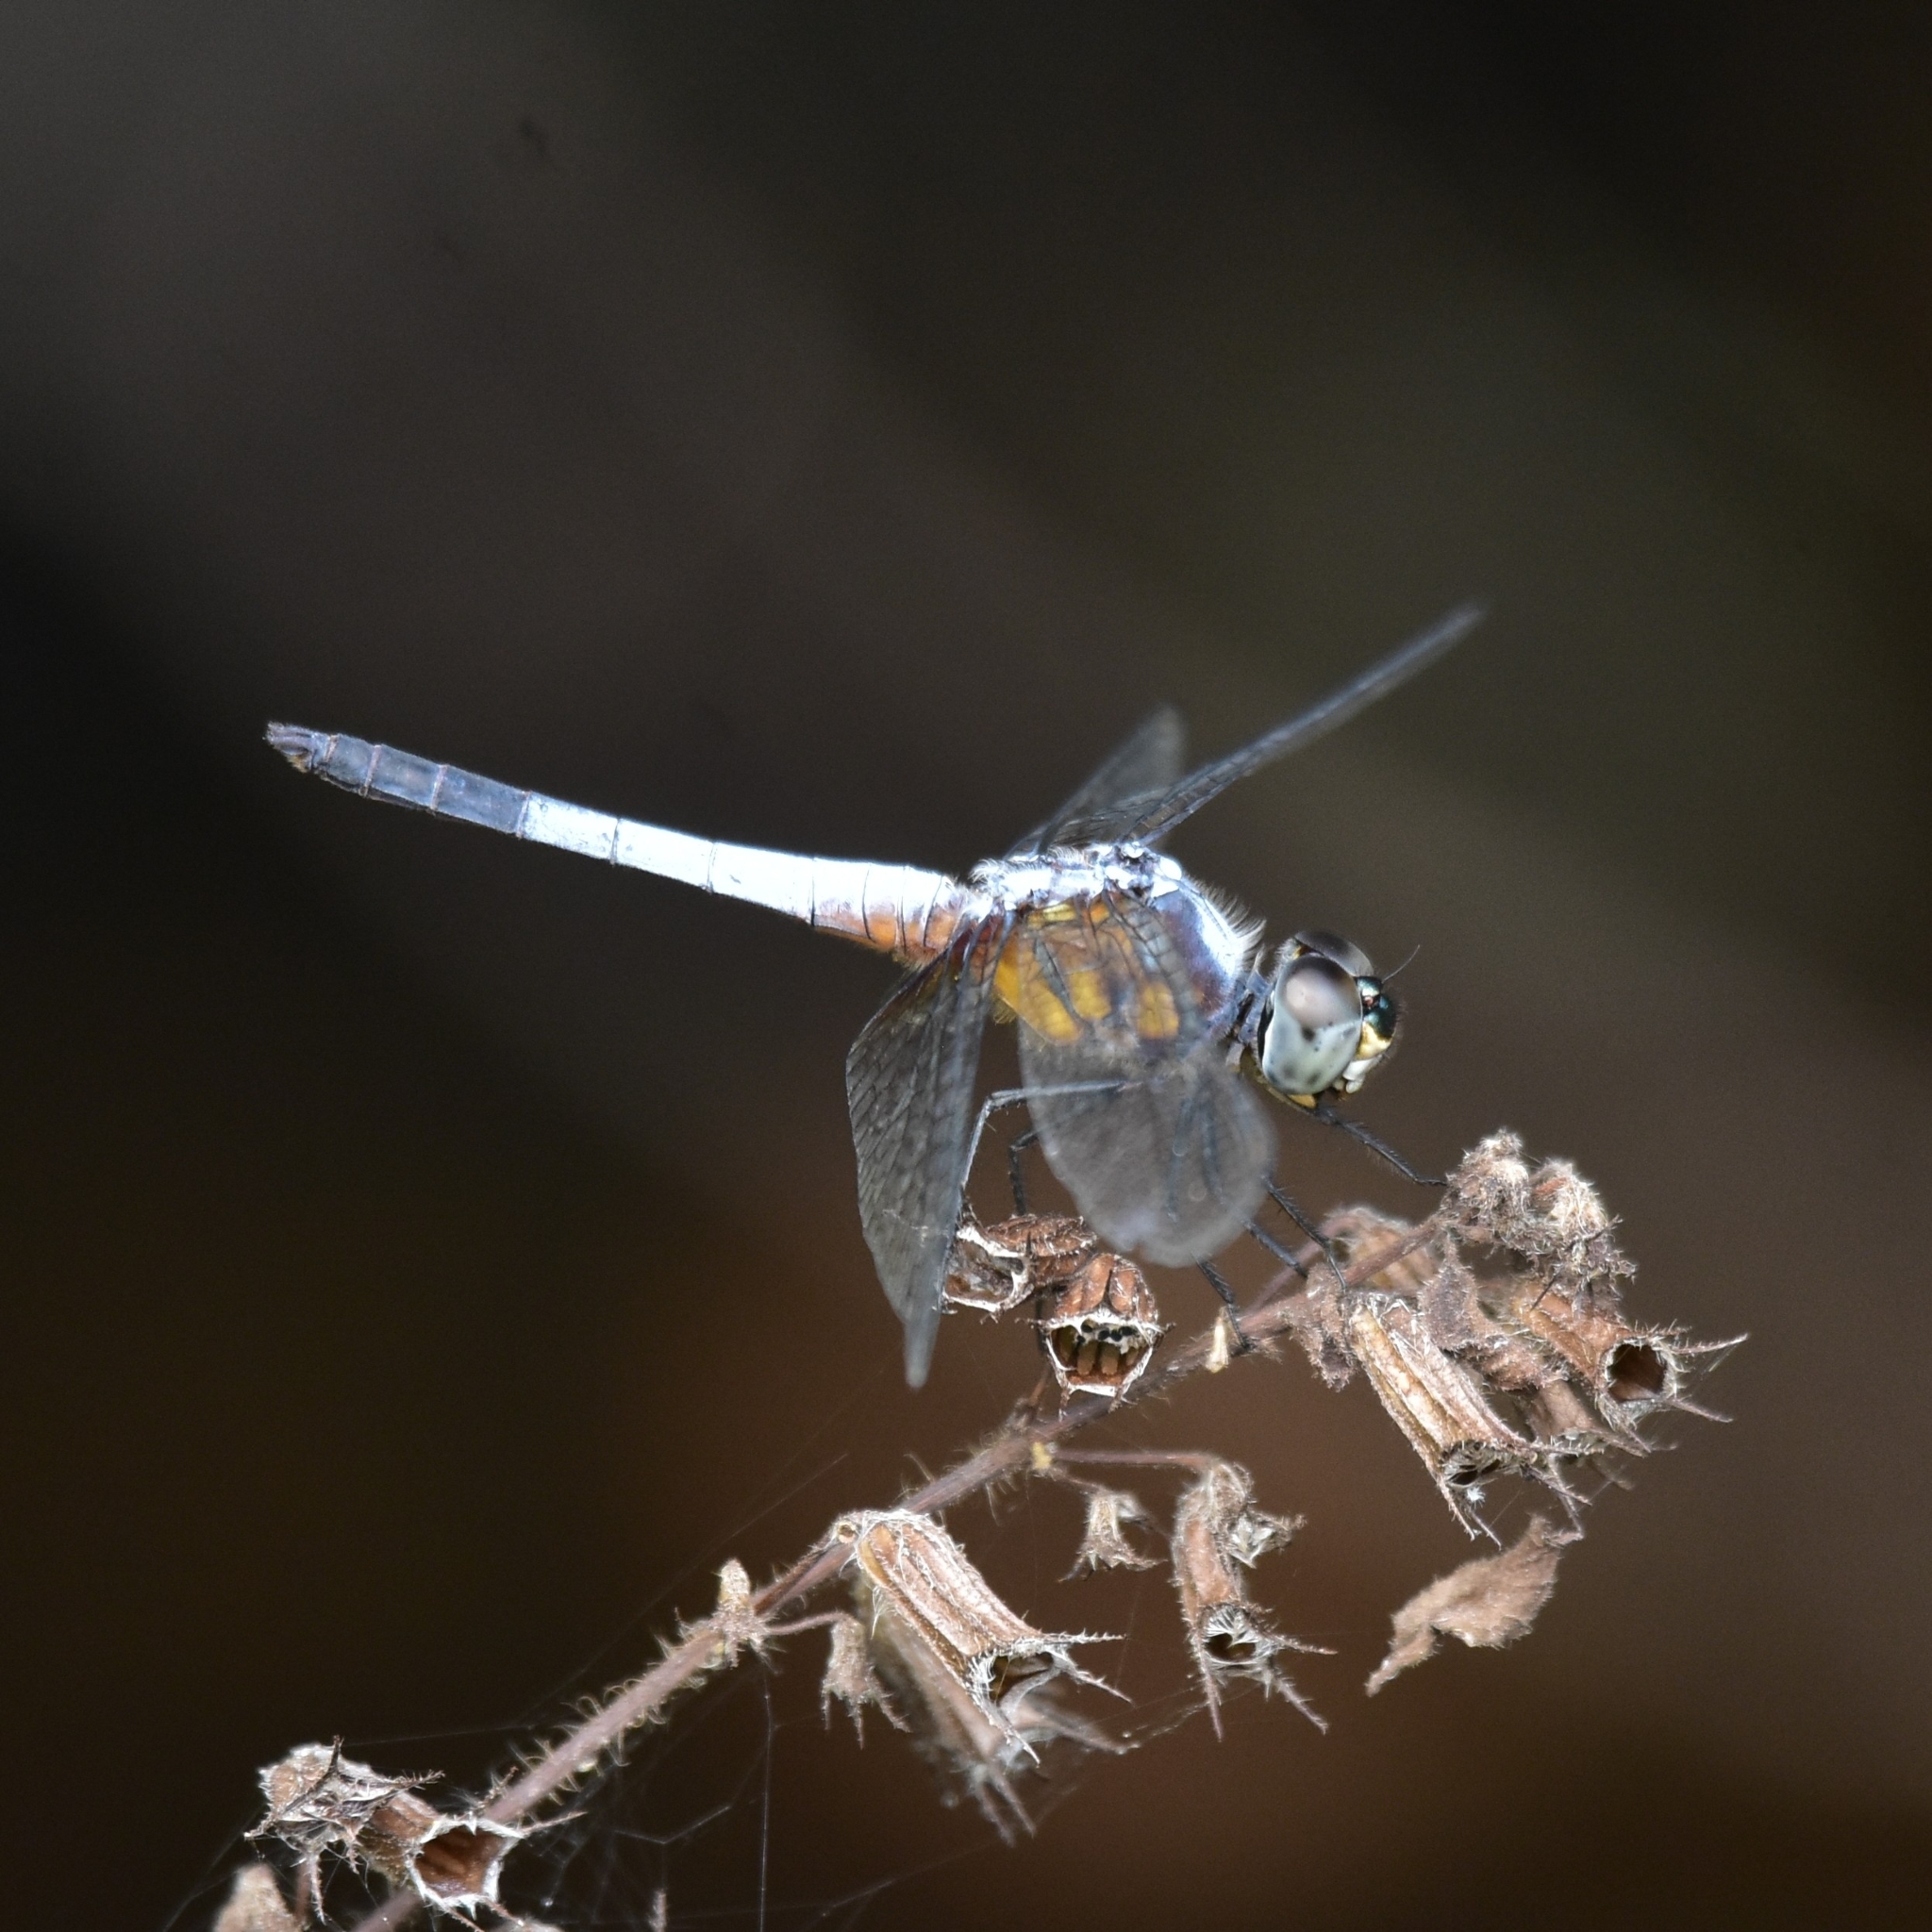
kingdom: Animalia
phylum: Arthropoda
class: Insecta
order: Odonata
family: Libellulidae
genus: Brachydiplax
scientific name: Brachydiplax chalybea
